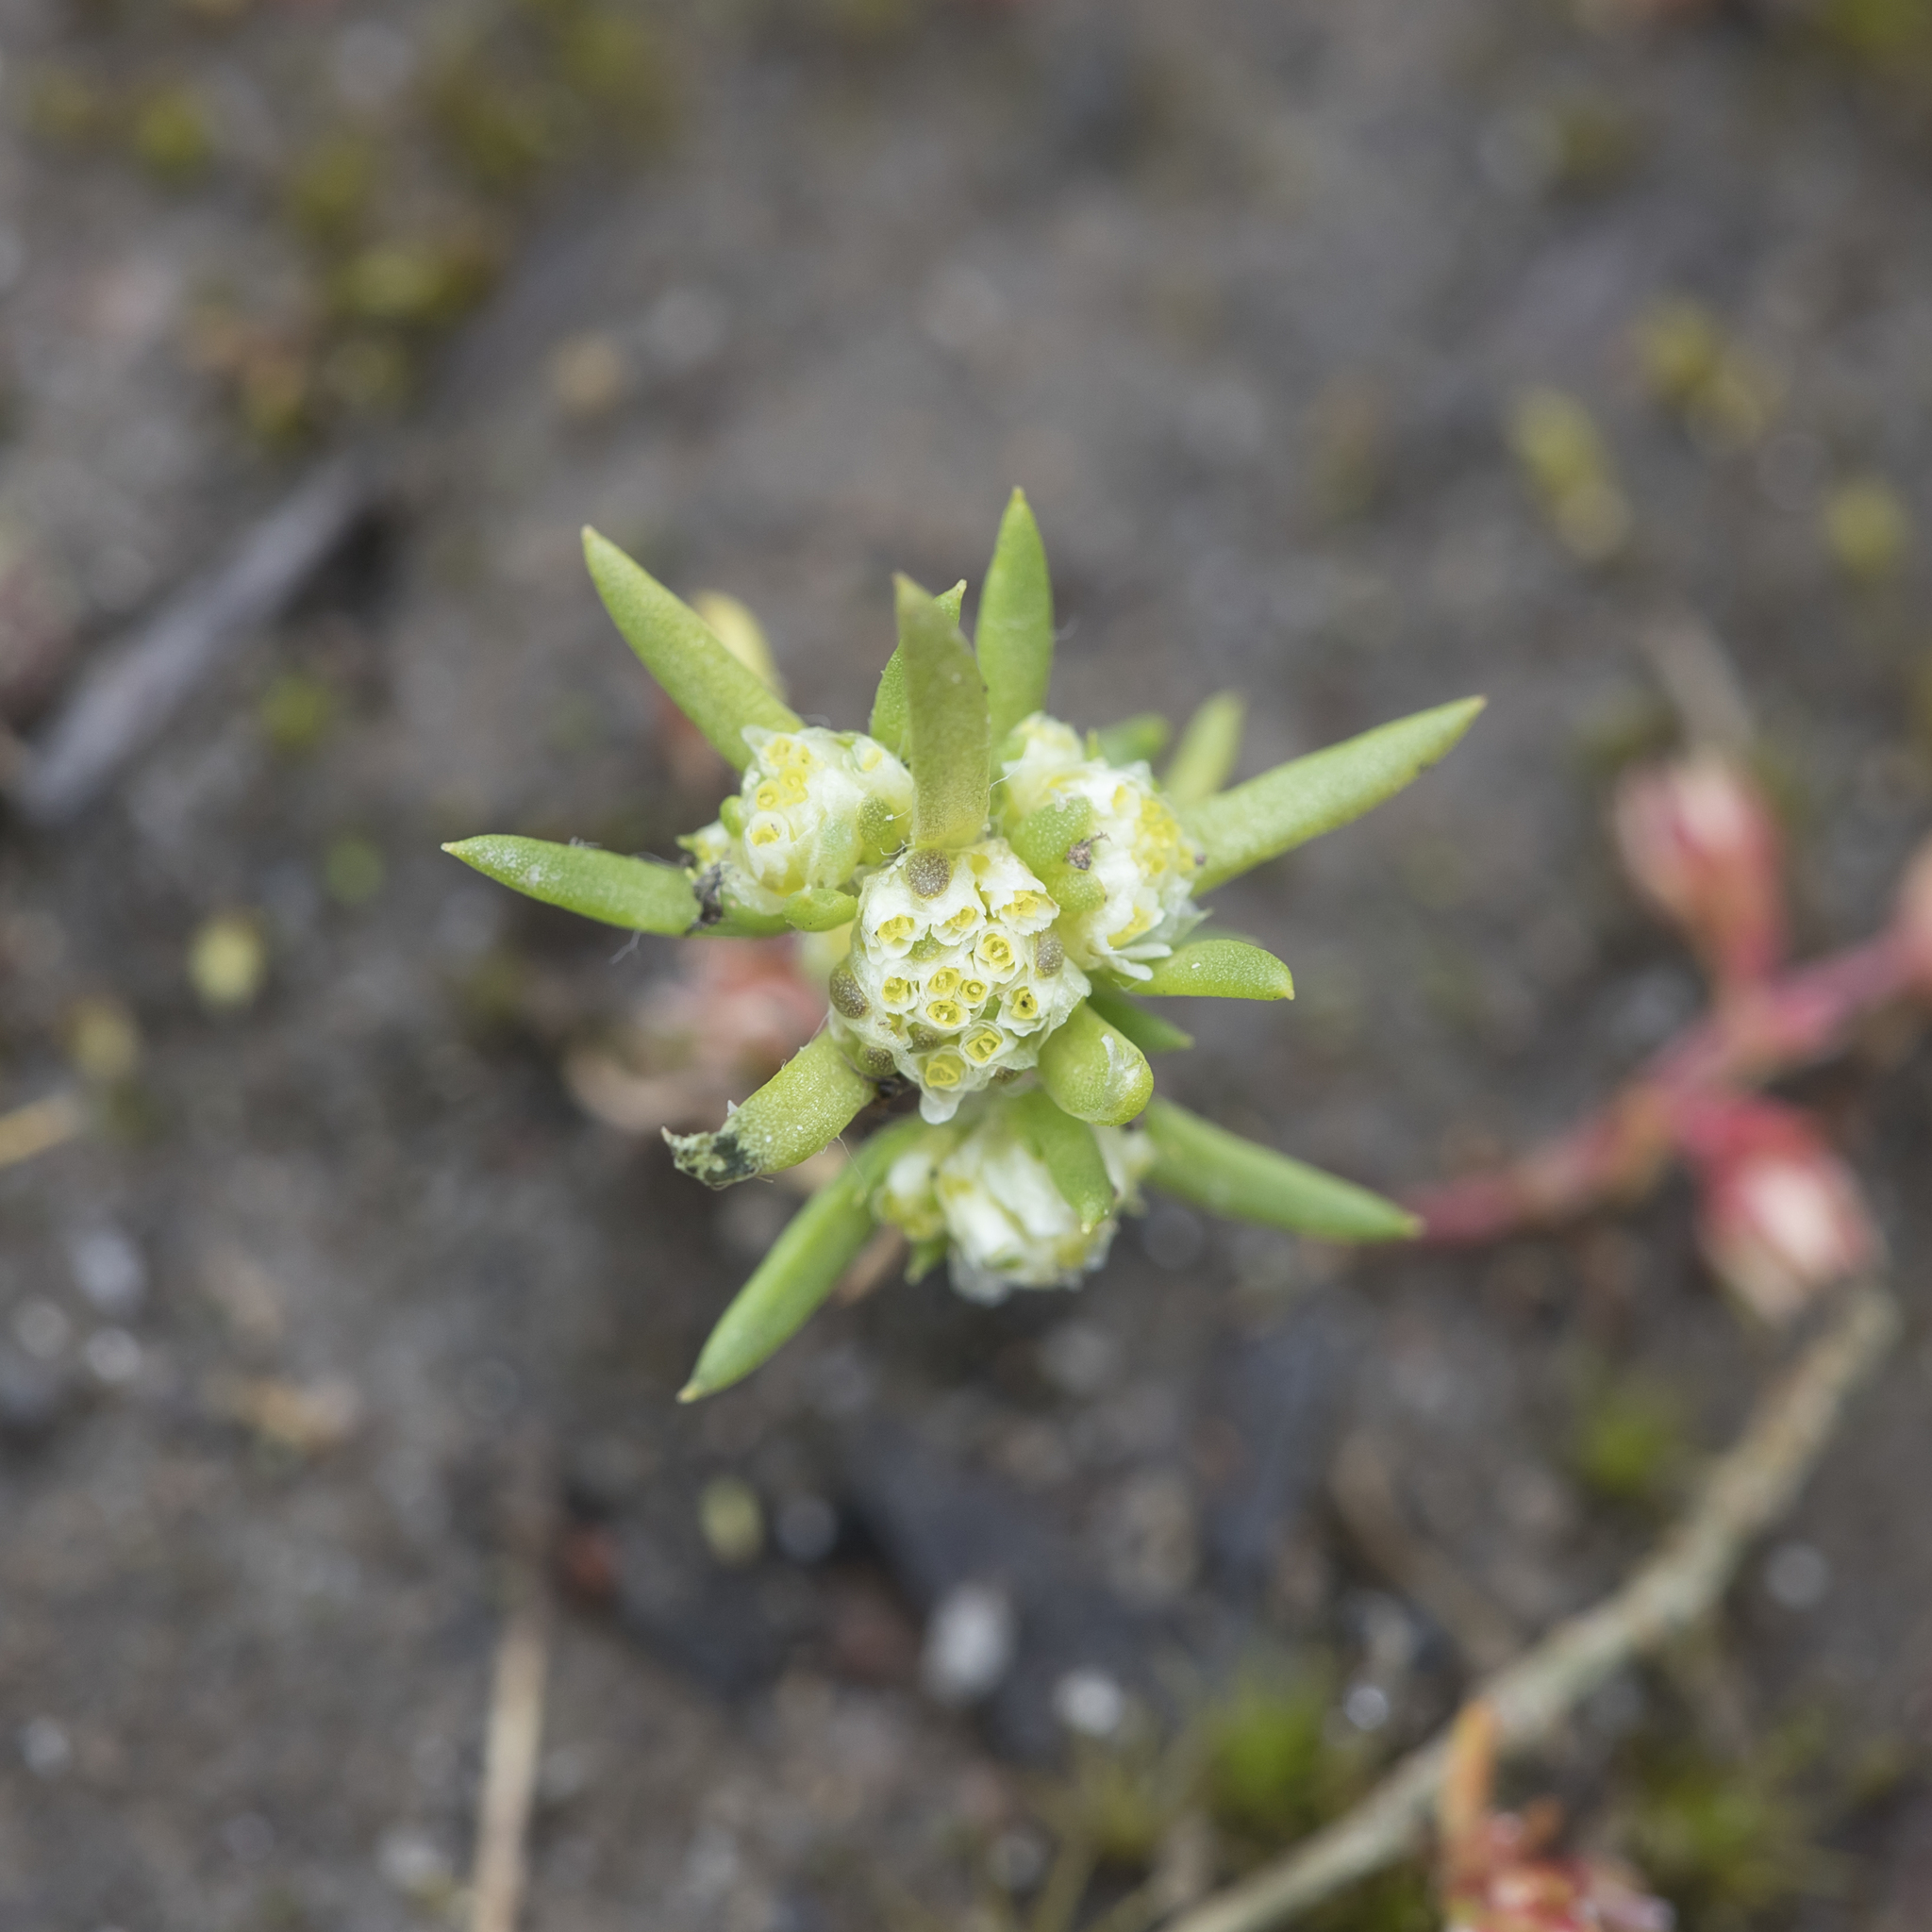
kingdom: Plantae
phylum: Tracheophyta
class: Magnoliopsida
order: Asterales
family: Asteraceae
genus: Siloxerus
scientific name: Siloxerus multiflorus
